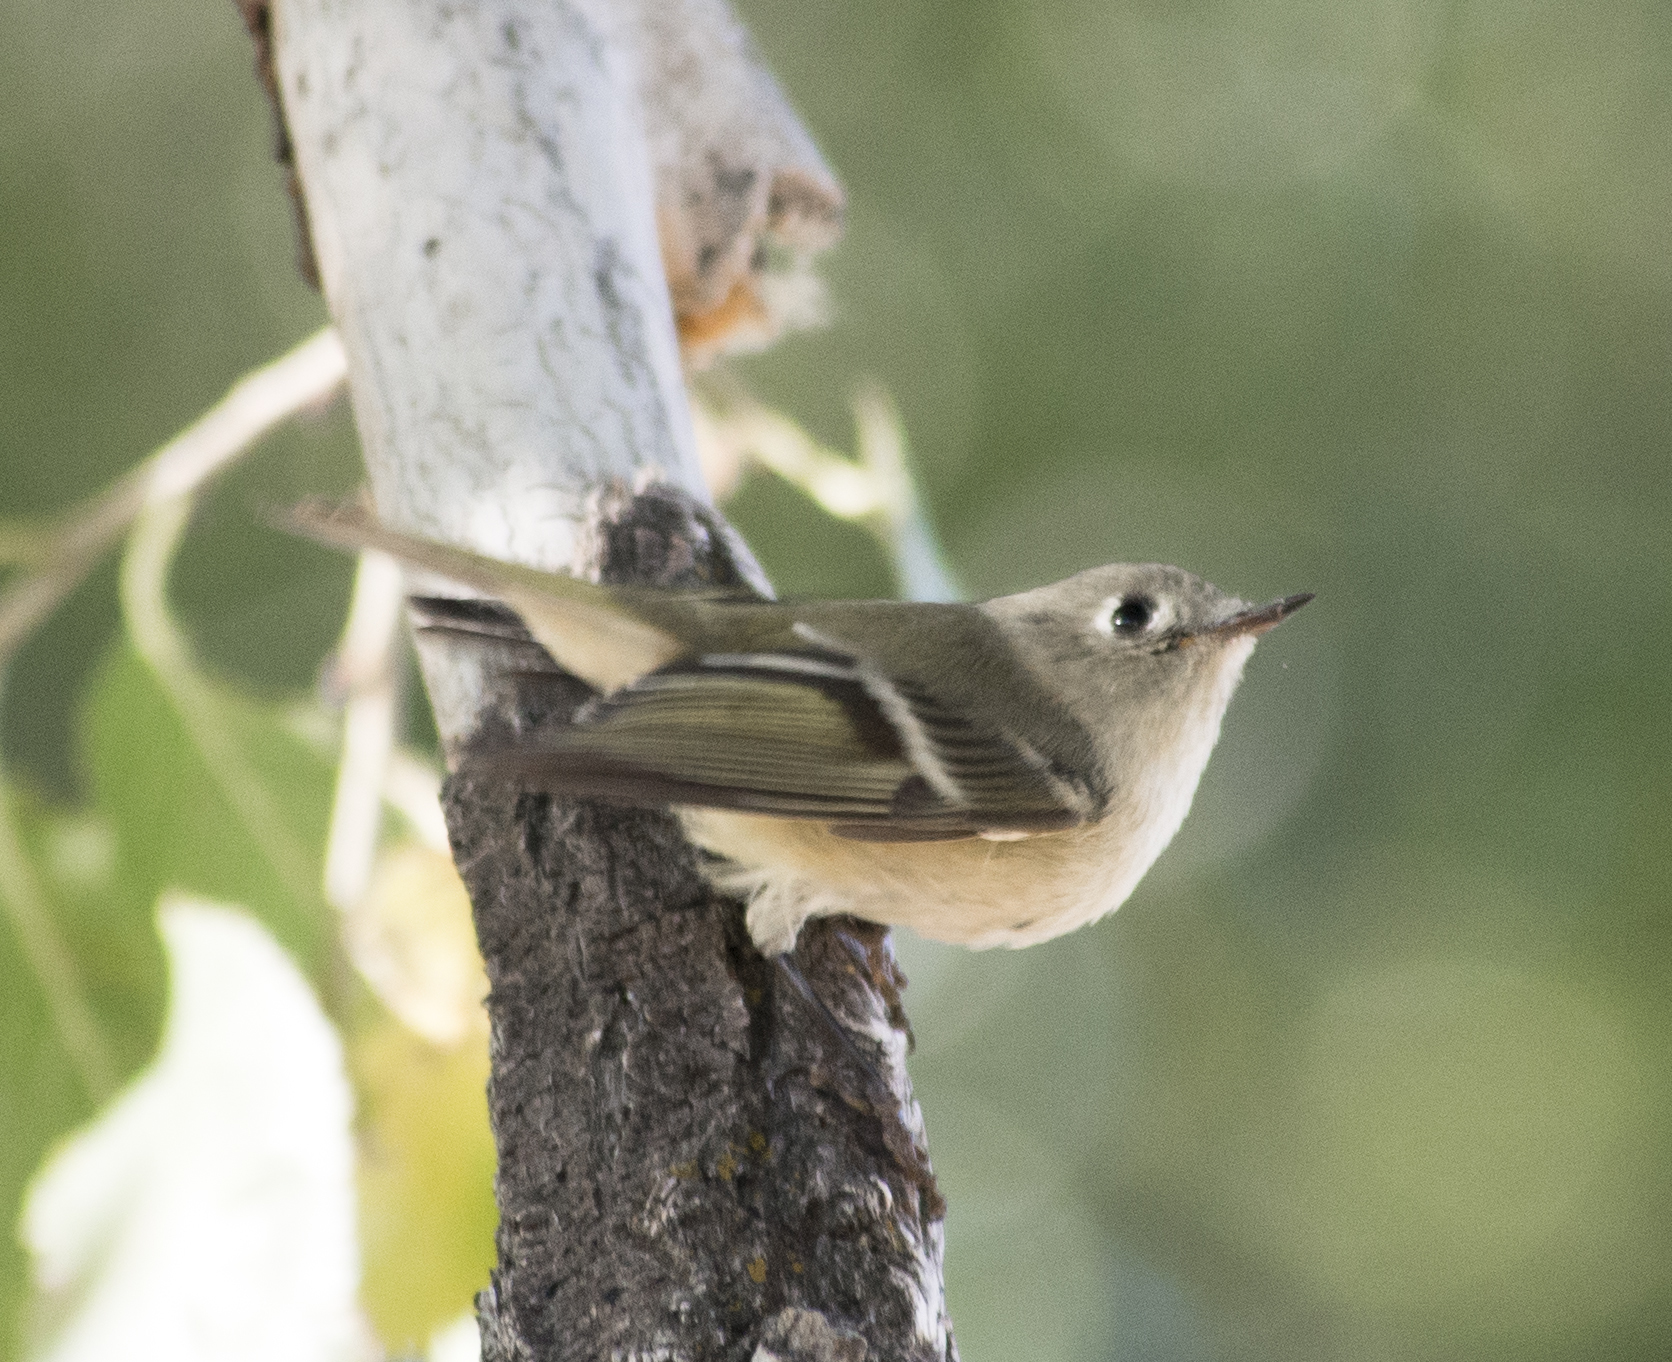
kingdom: Animalia
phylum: Chordata
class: Aves
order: Passeriformes
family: Regulidae
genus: Regulus
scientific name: Regulus calendula
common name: Ruby-crowned kinglet
